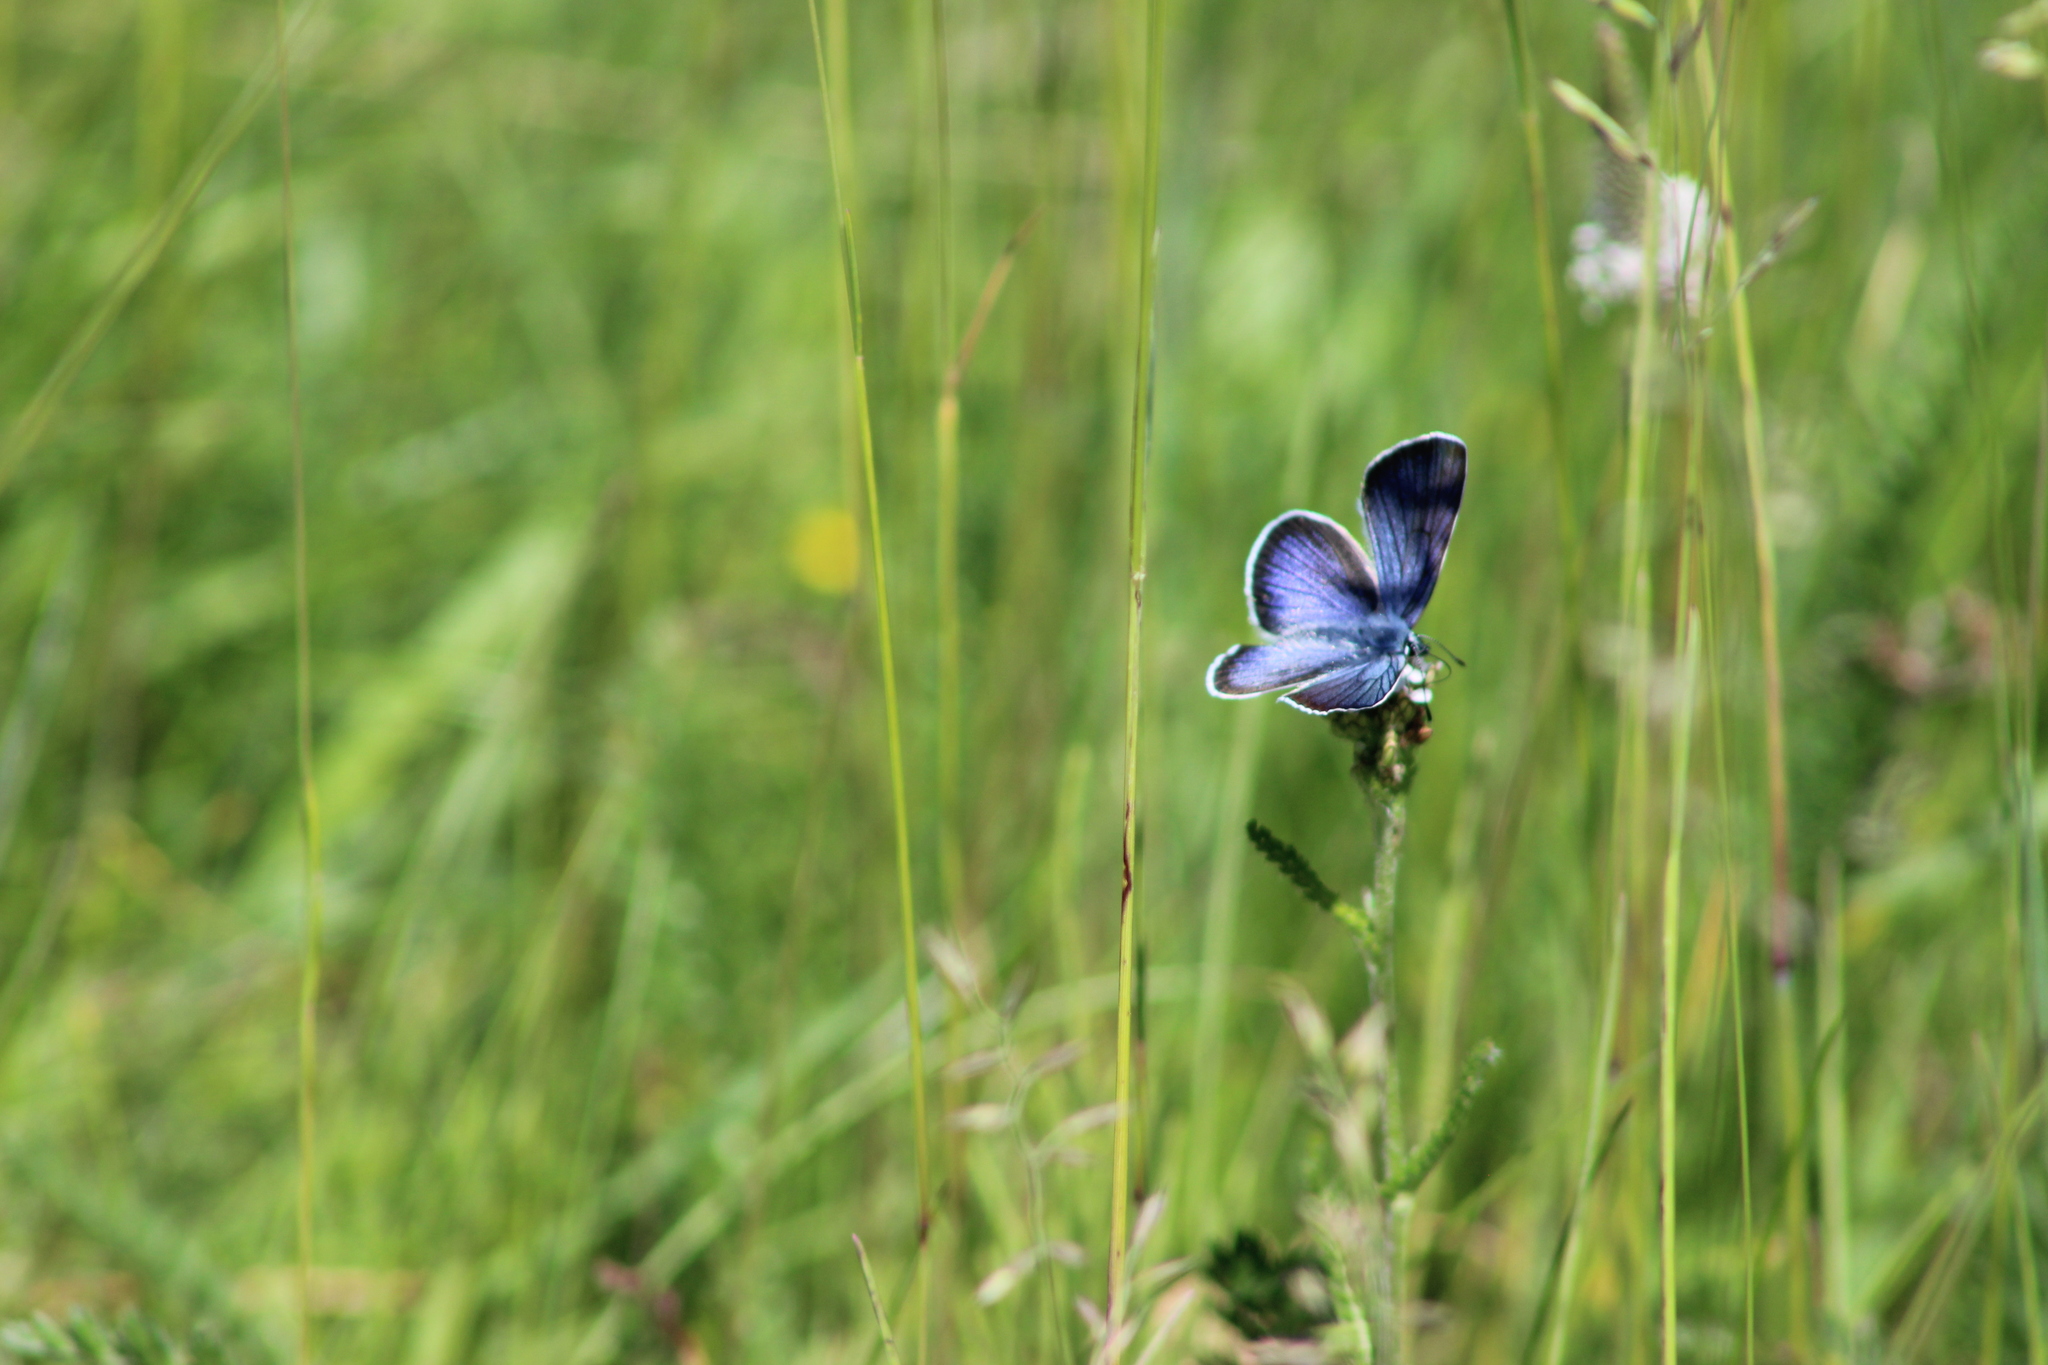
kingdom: Animalia
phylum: Arthropoda
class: Insecta
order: Lepidoptera
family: Lycaenidae
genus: Cyaniris
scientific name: Cyaniris semiargus
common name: Mazarine blue
